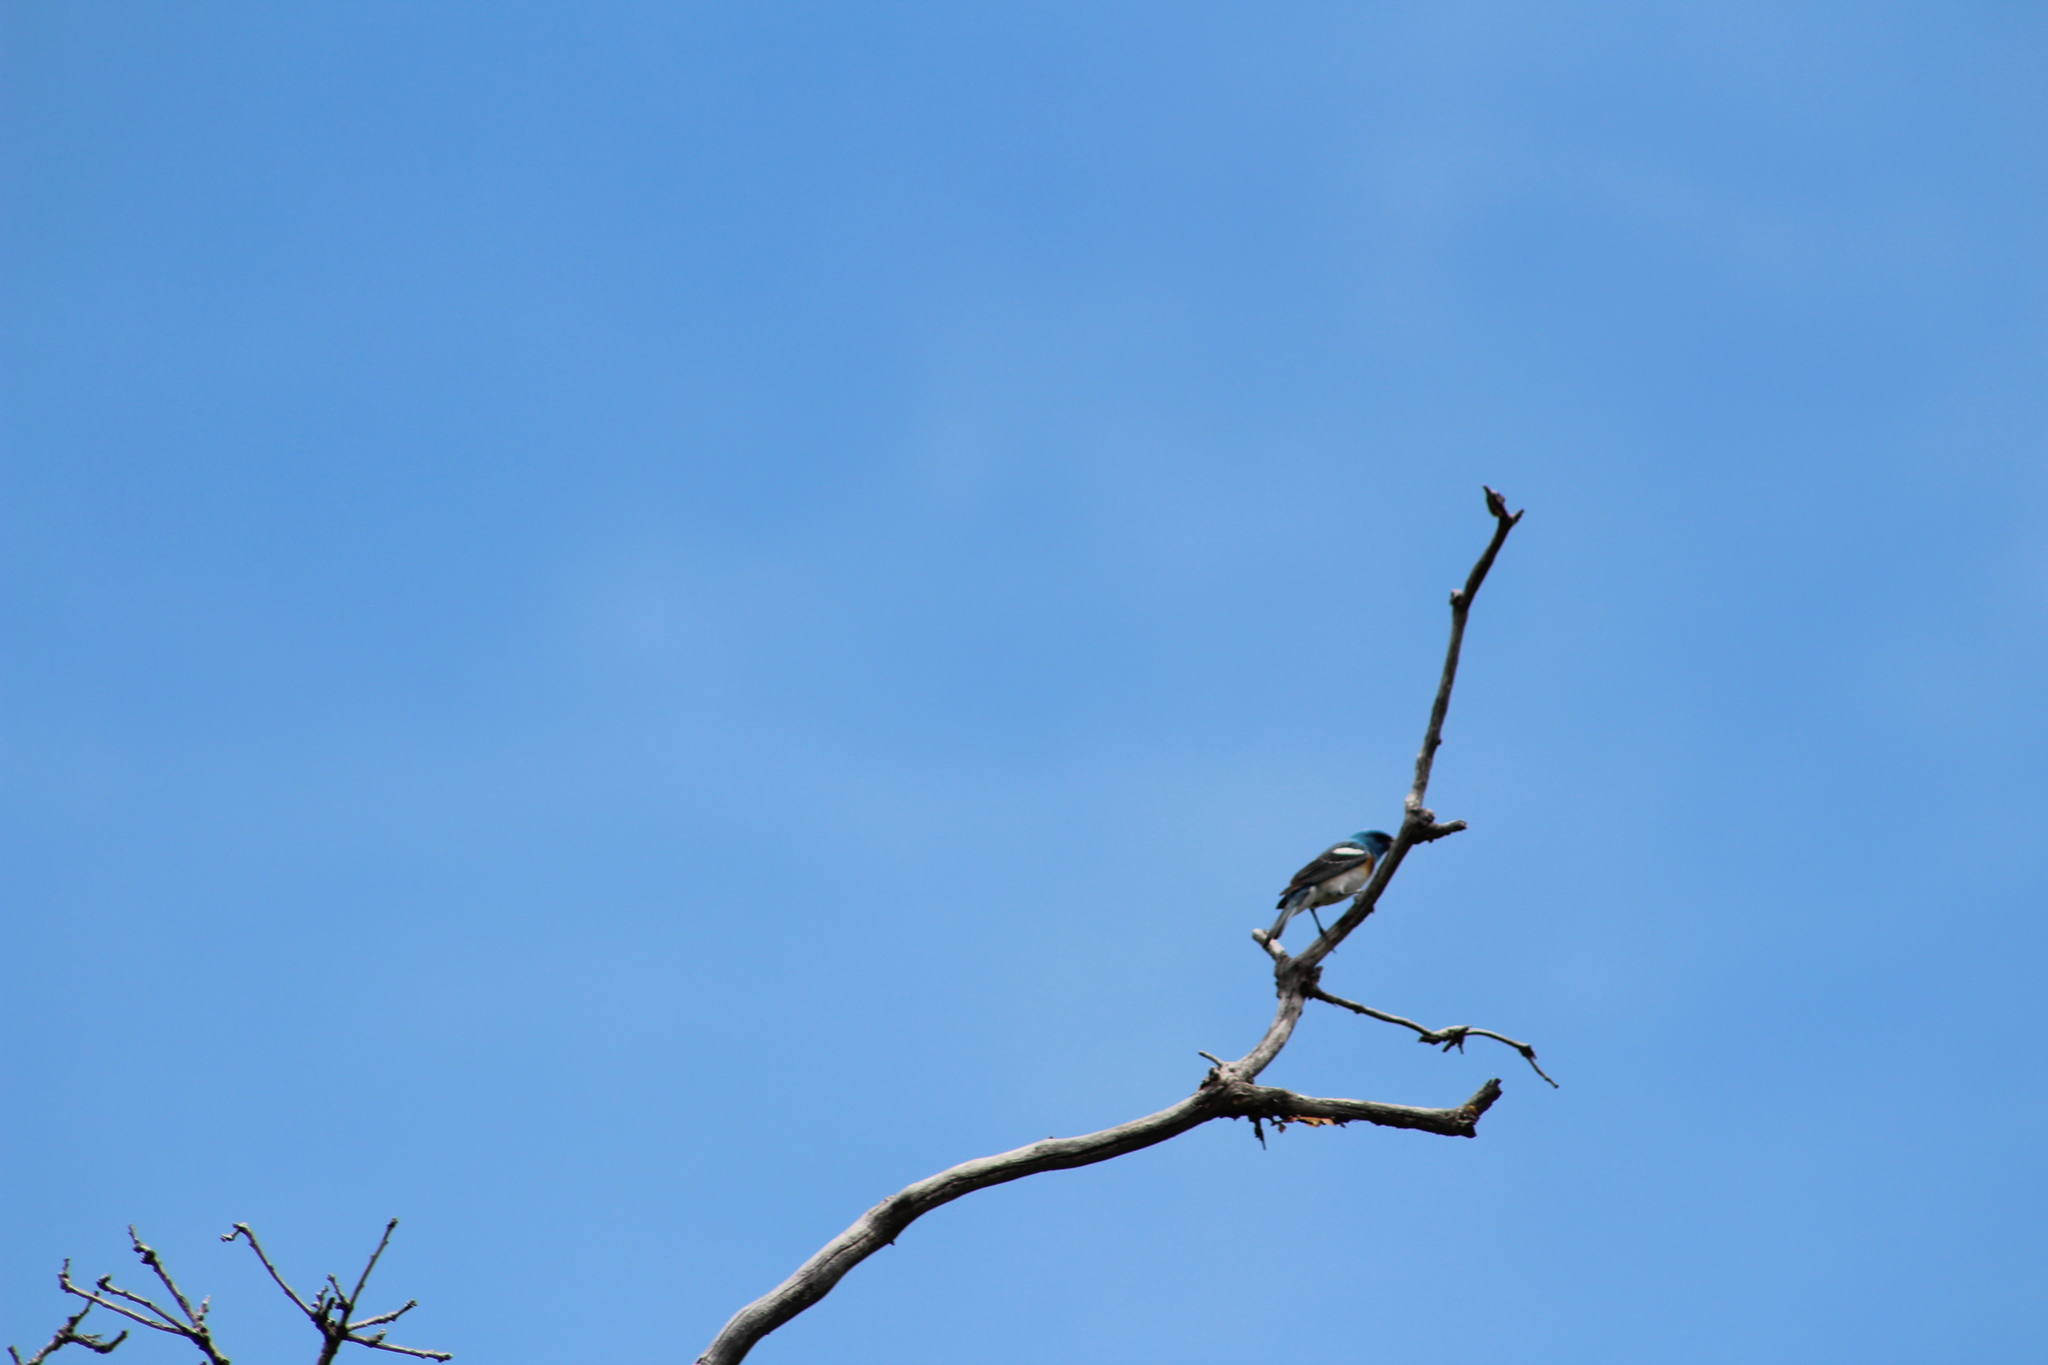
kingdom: Animalia
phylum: Chordata
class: Aves
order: Passeriformes
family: Cardinalidae
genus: Passerina
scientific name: Passerina amoena
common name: Lazuli bunting
